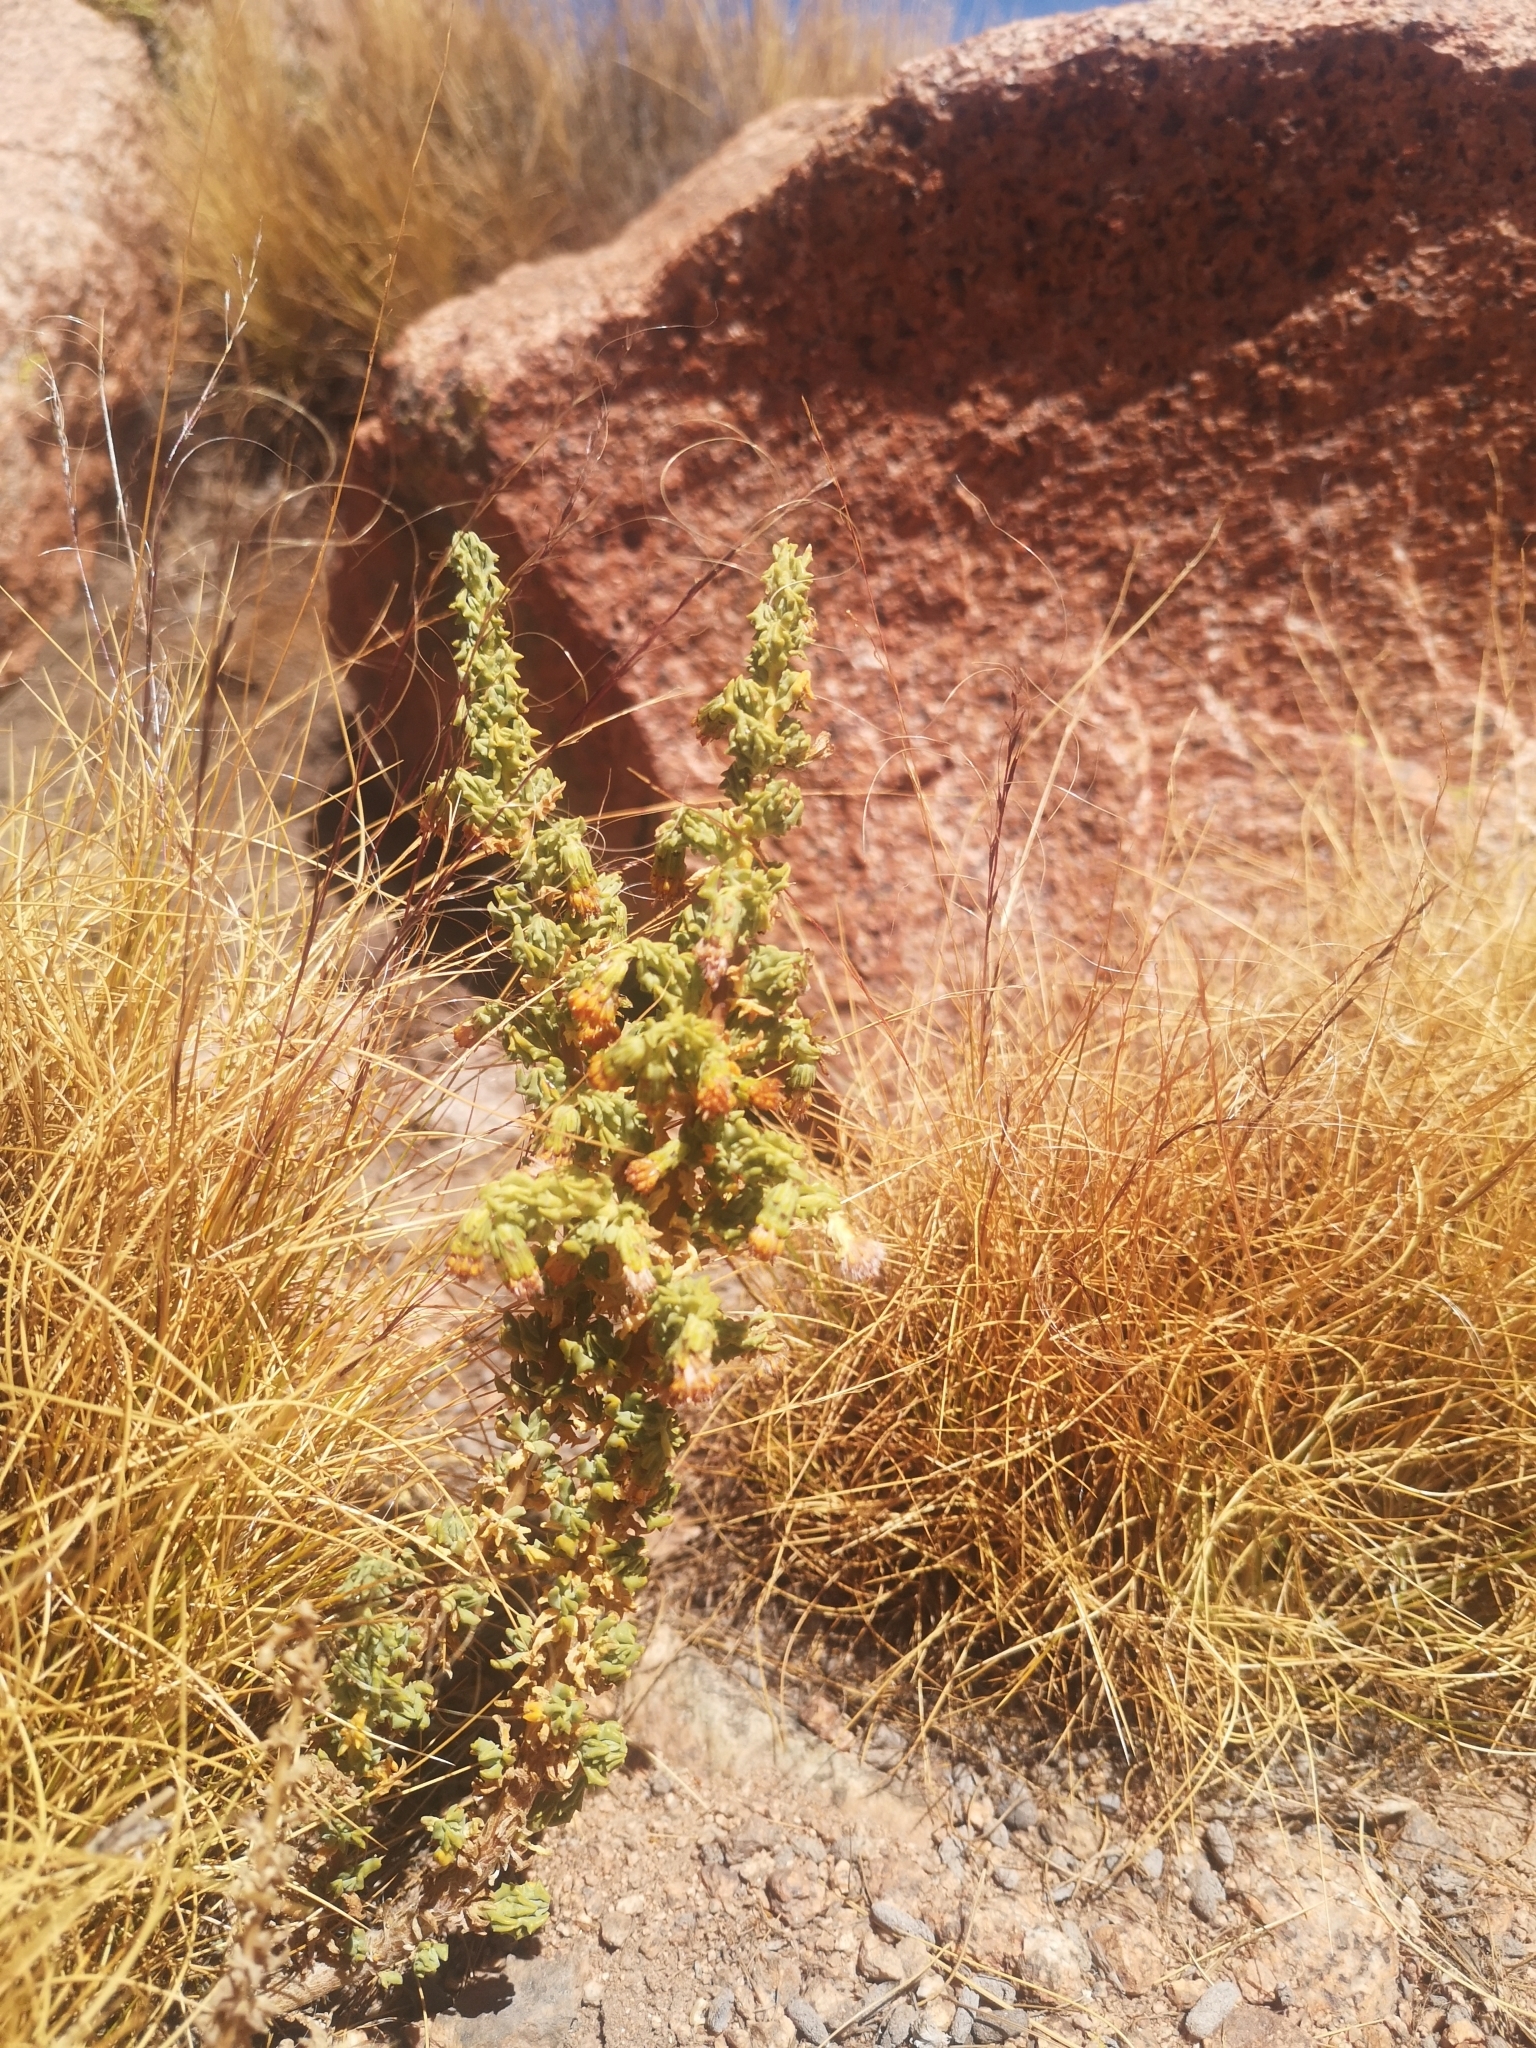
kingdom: Plantae
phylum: Tracheophyta
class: Magnoliopsida
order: Asterales
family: Asteraceae
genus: Senecio
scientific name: Senecio nutans
